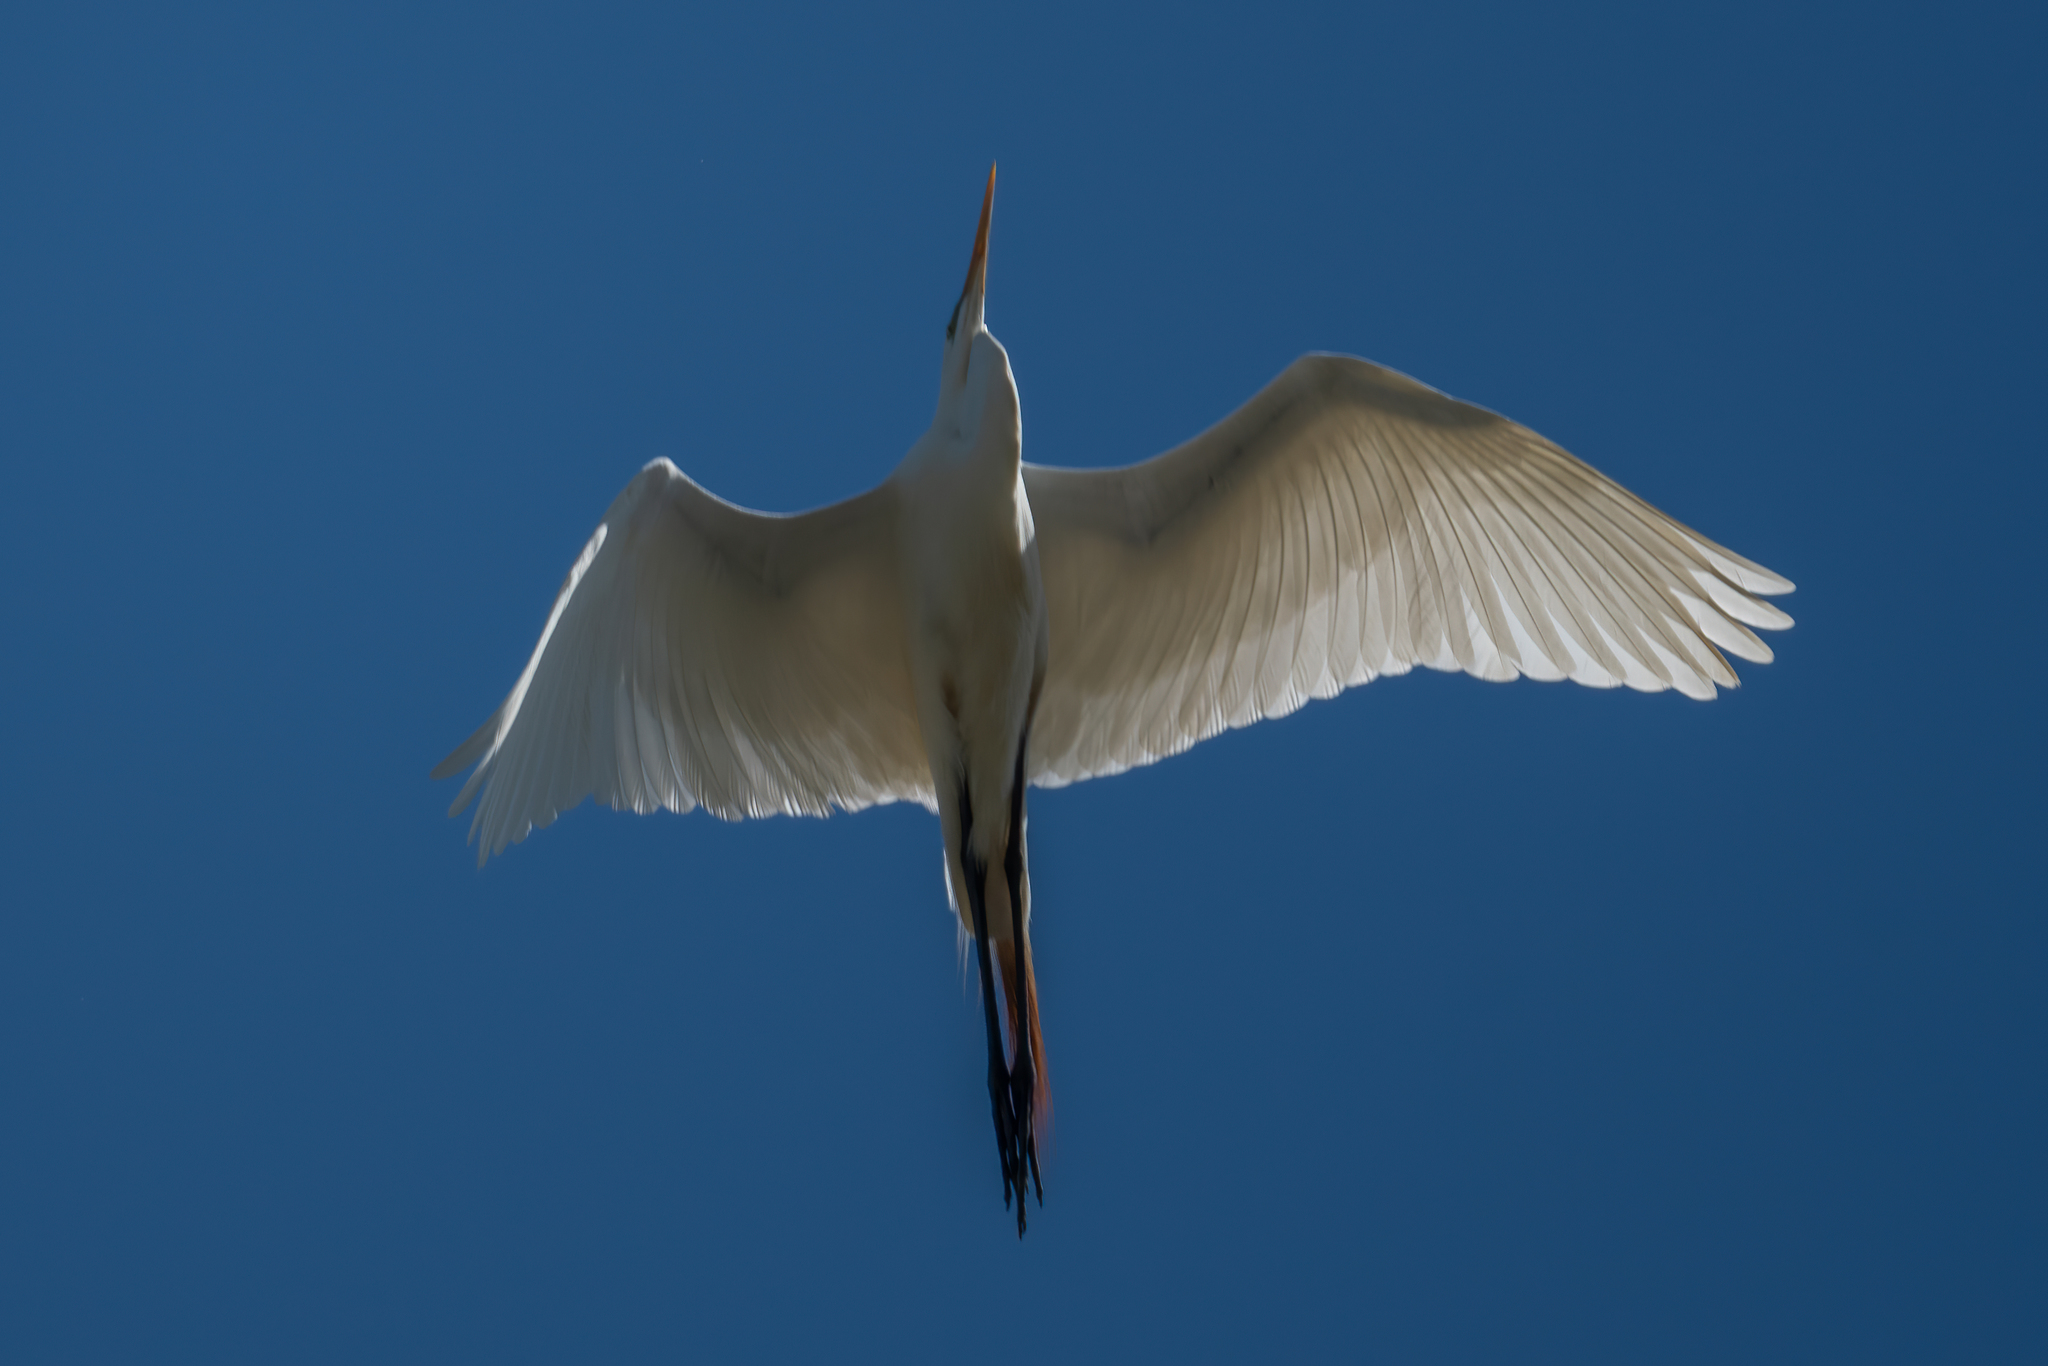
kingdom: Animalia
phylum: Chordata
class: Aves
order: Pelecaniformes
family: Ardeidae
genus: Ardea
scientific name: Ardea alba
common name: Great egret
